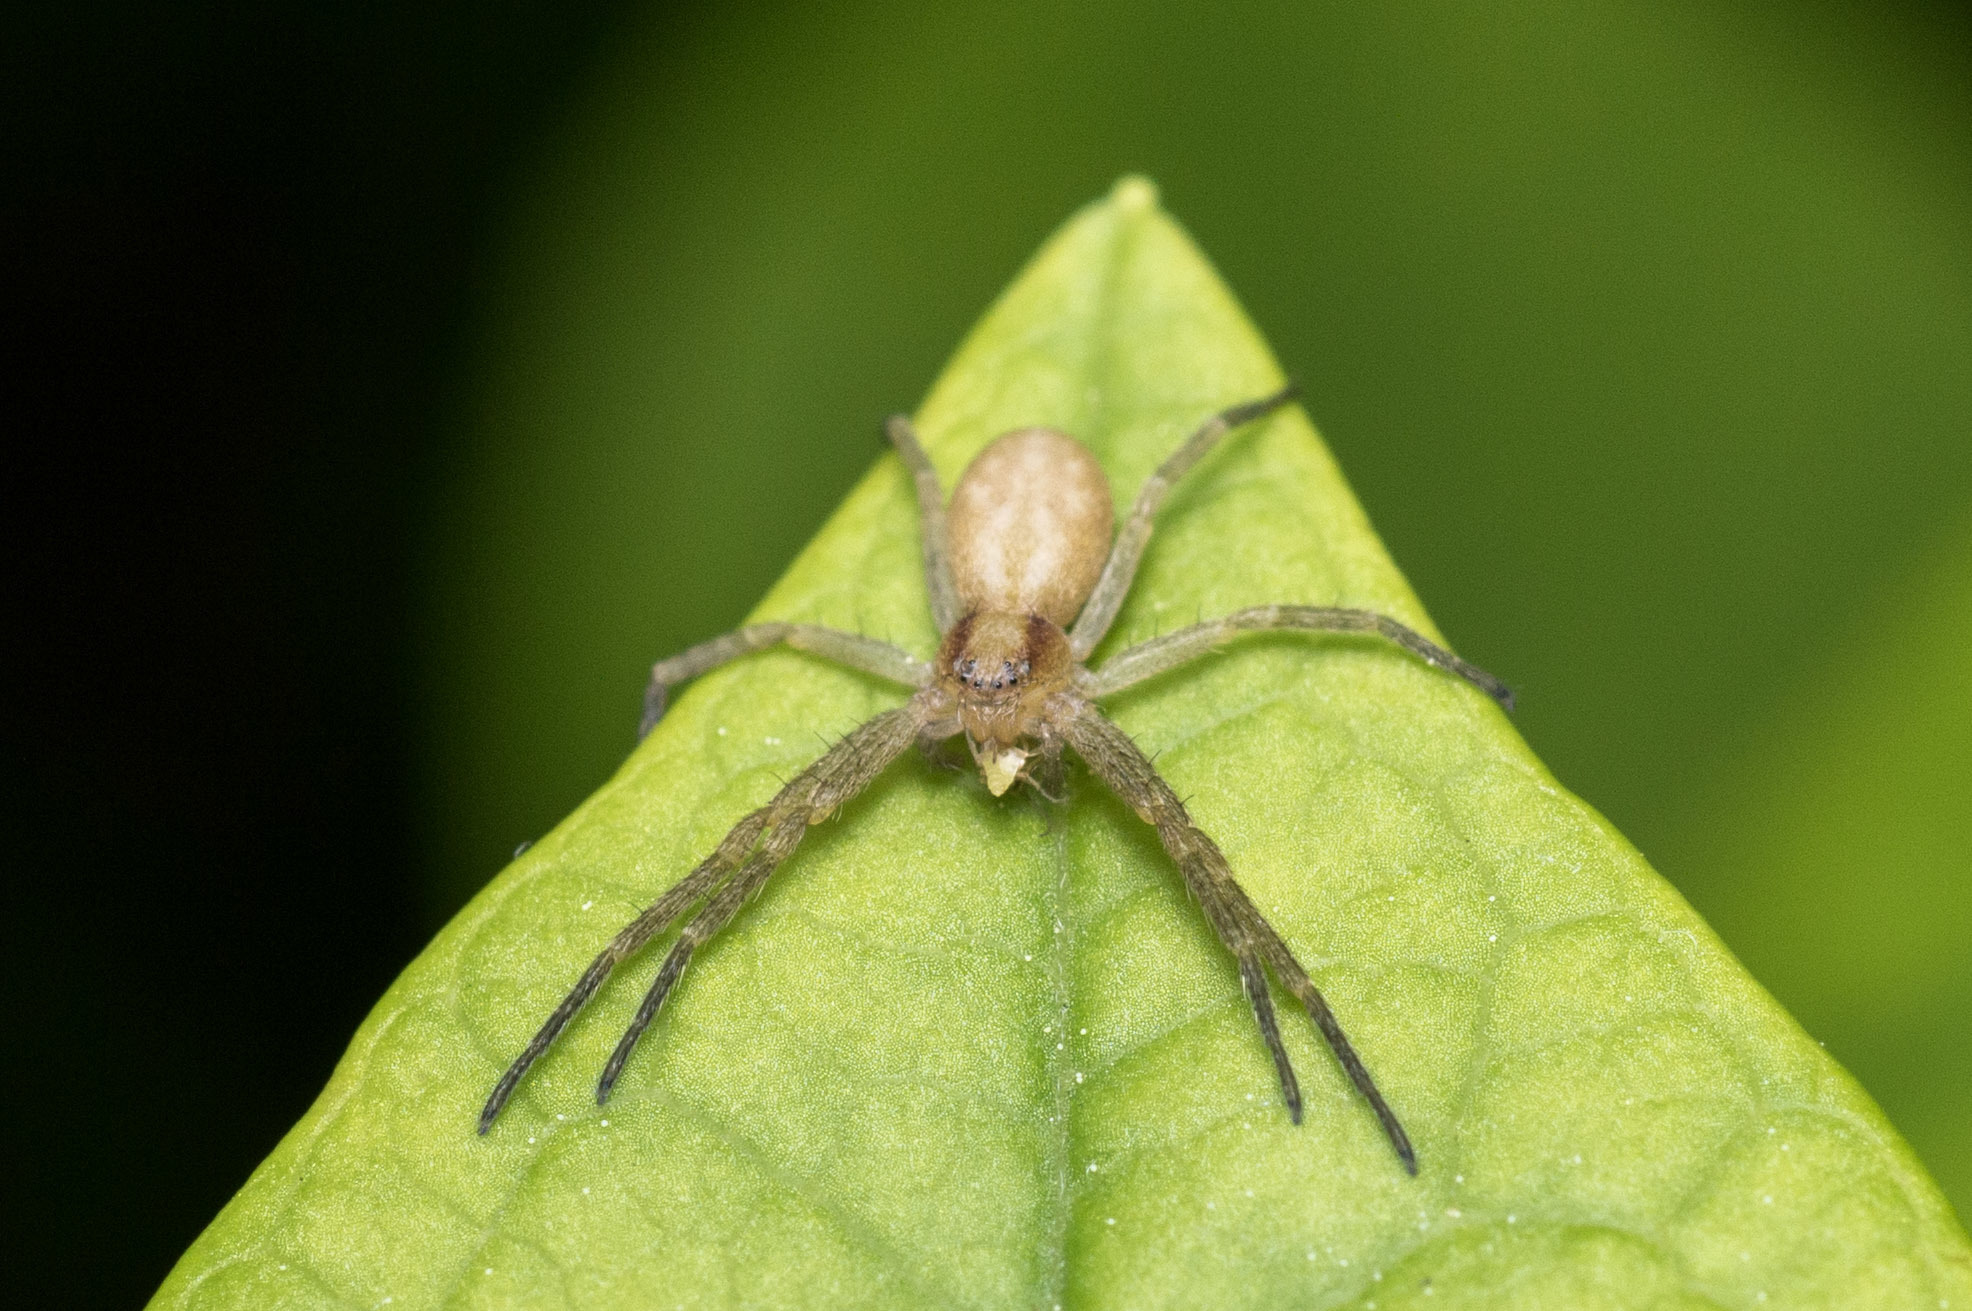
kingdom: Animalia
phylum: Arthropoda
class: Arachnida
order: Araneae
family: Philodromidae
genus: Philodromus
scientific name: Philodromus
